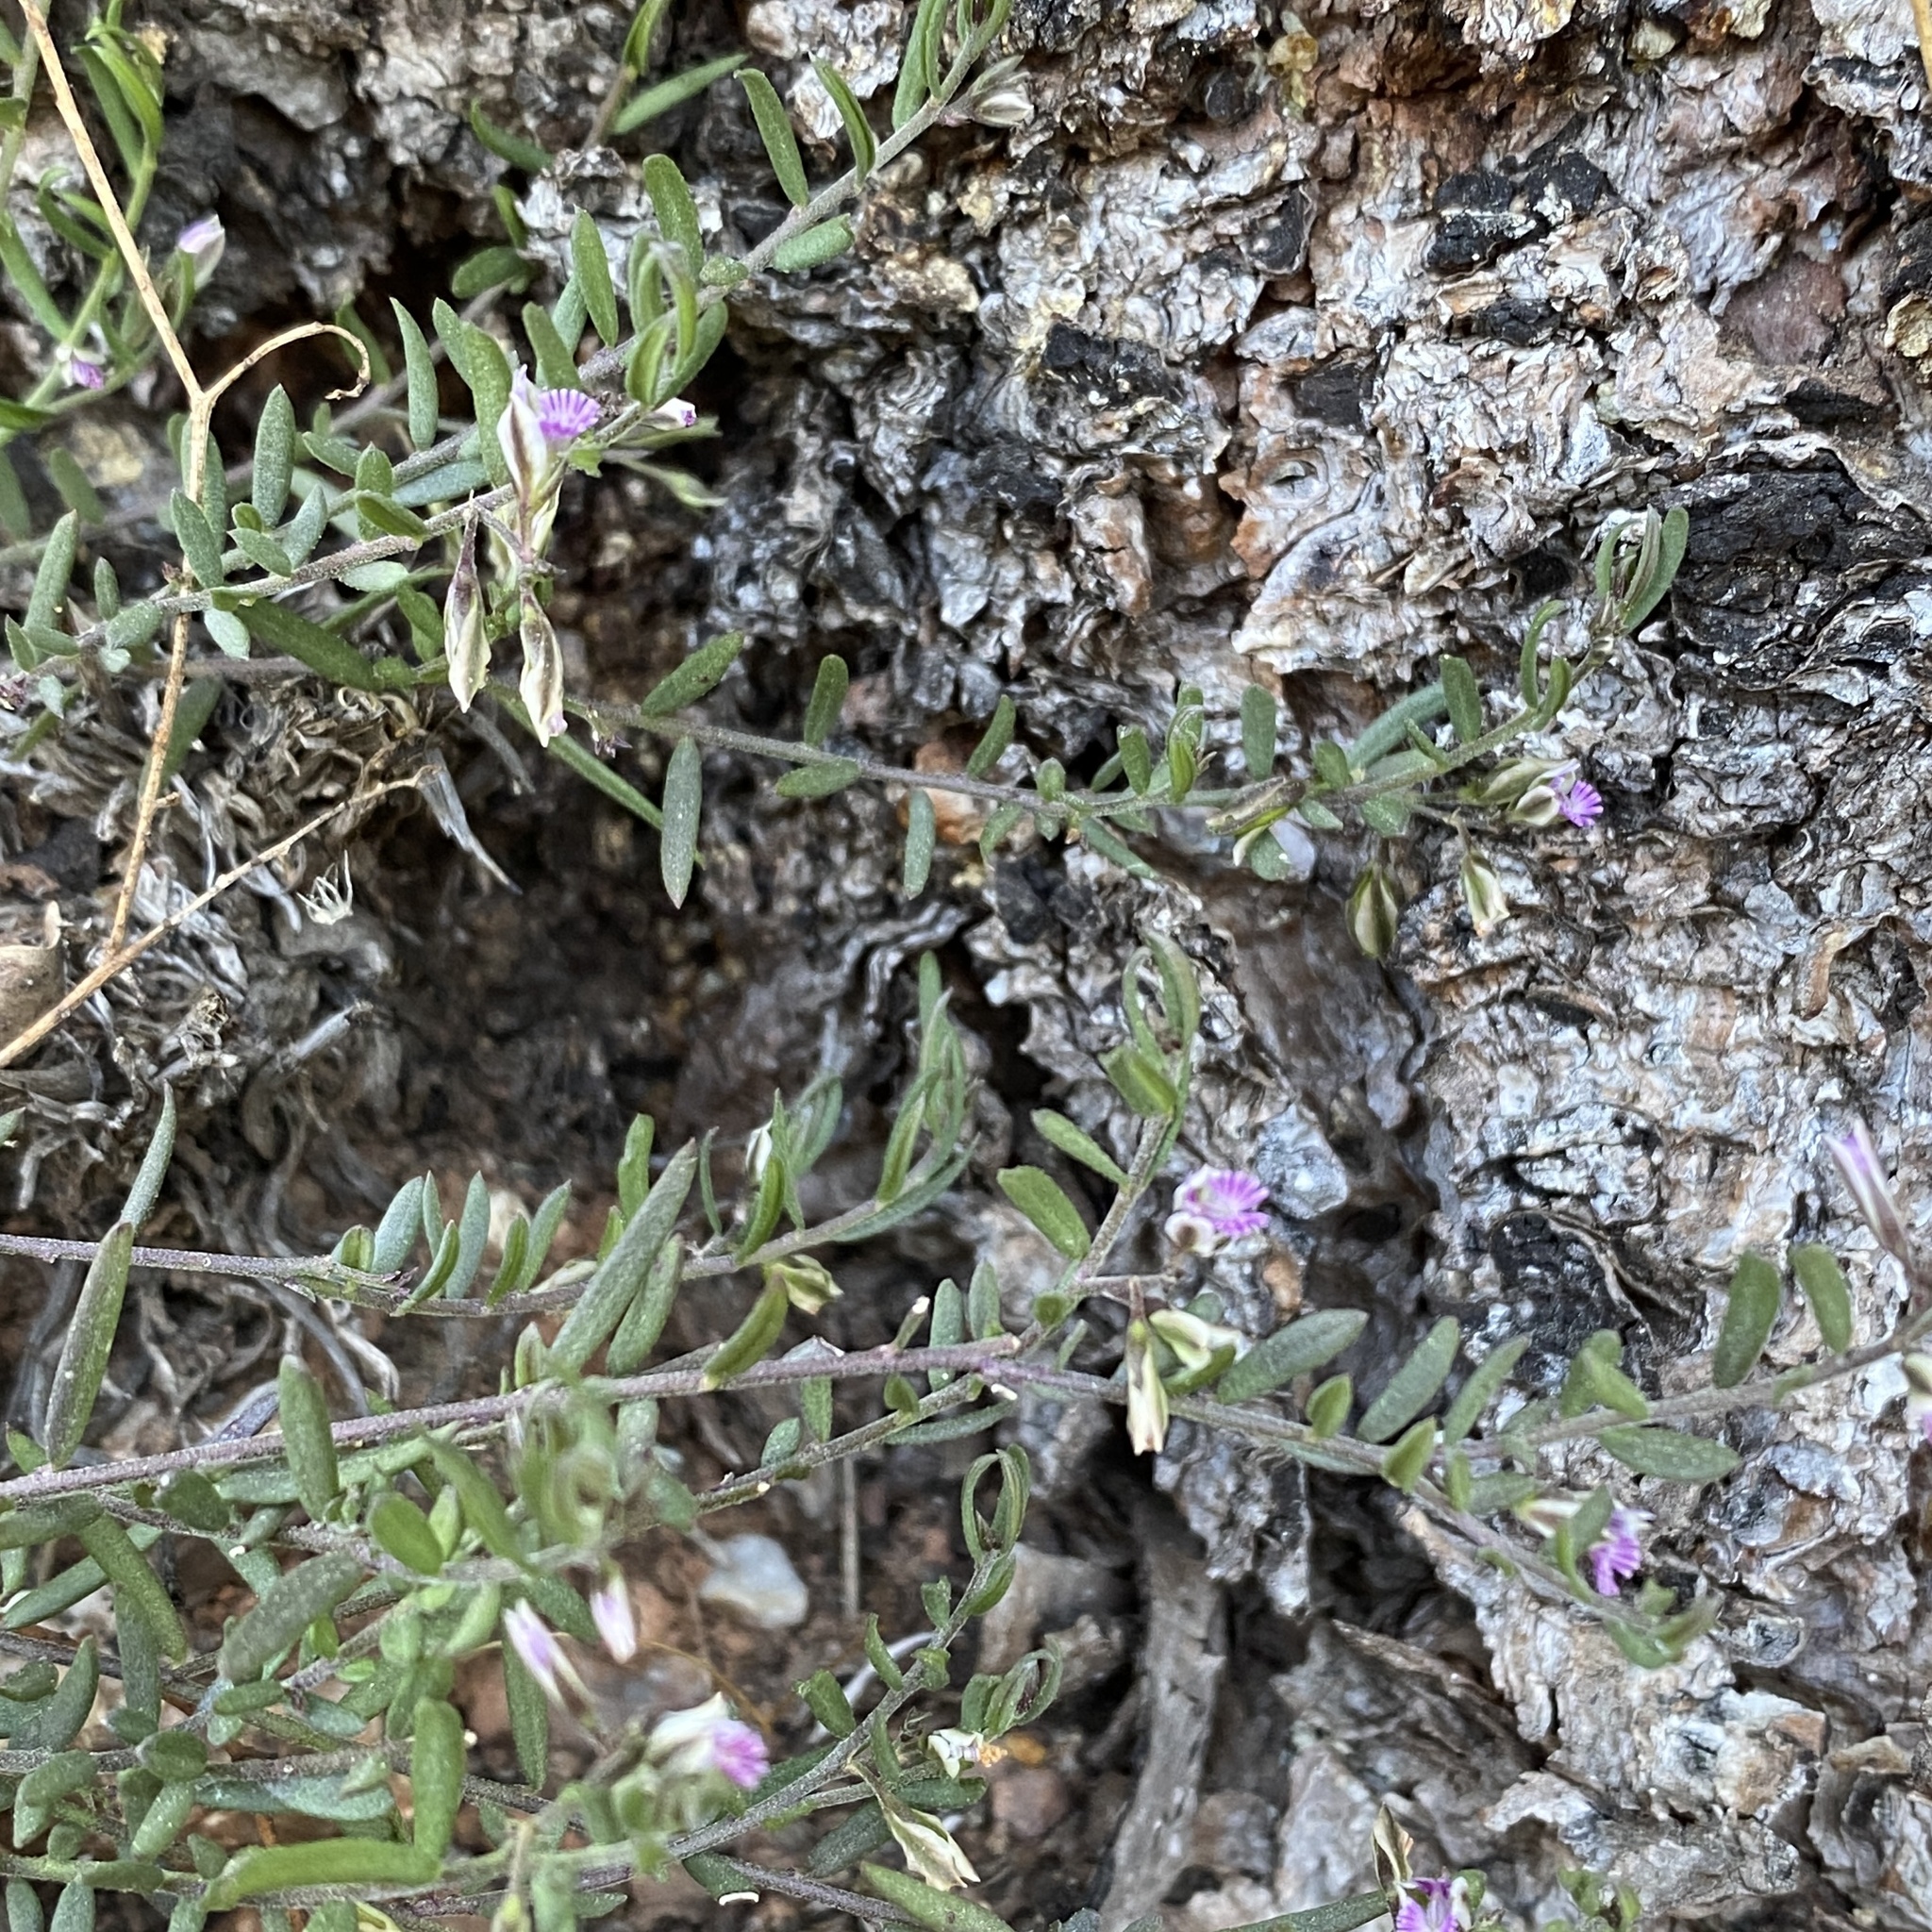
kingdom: Plantae
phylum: Tracheophyta
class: Magnoliopsida
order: Fabales
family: Polygalaceae
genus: Polygala
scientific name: Polygala rupestris
